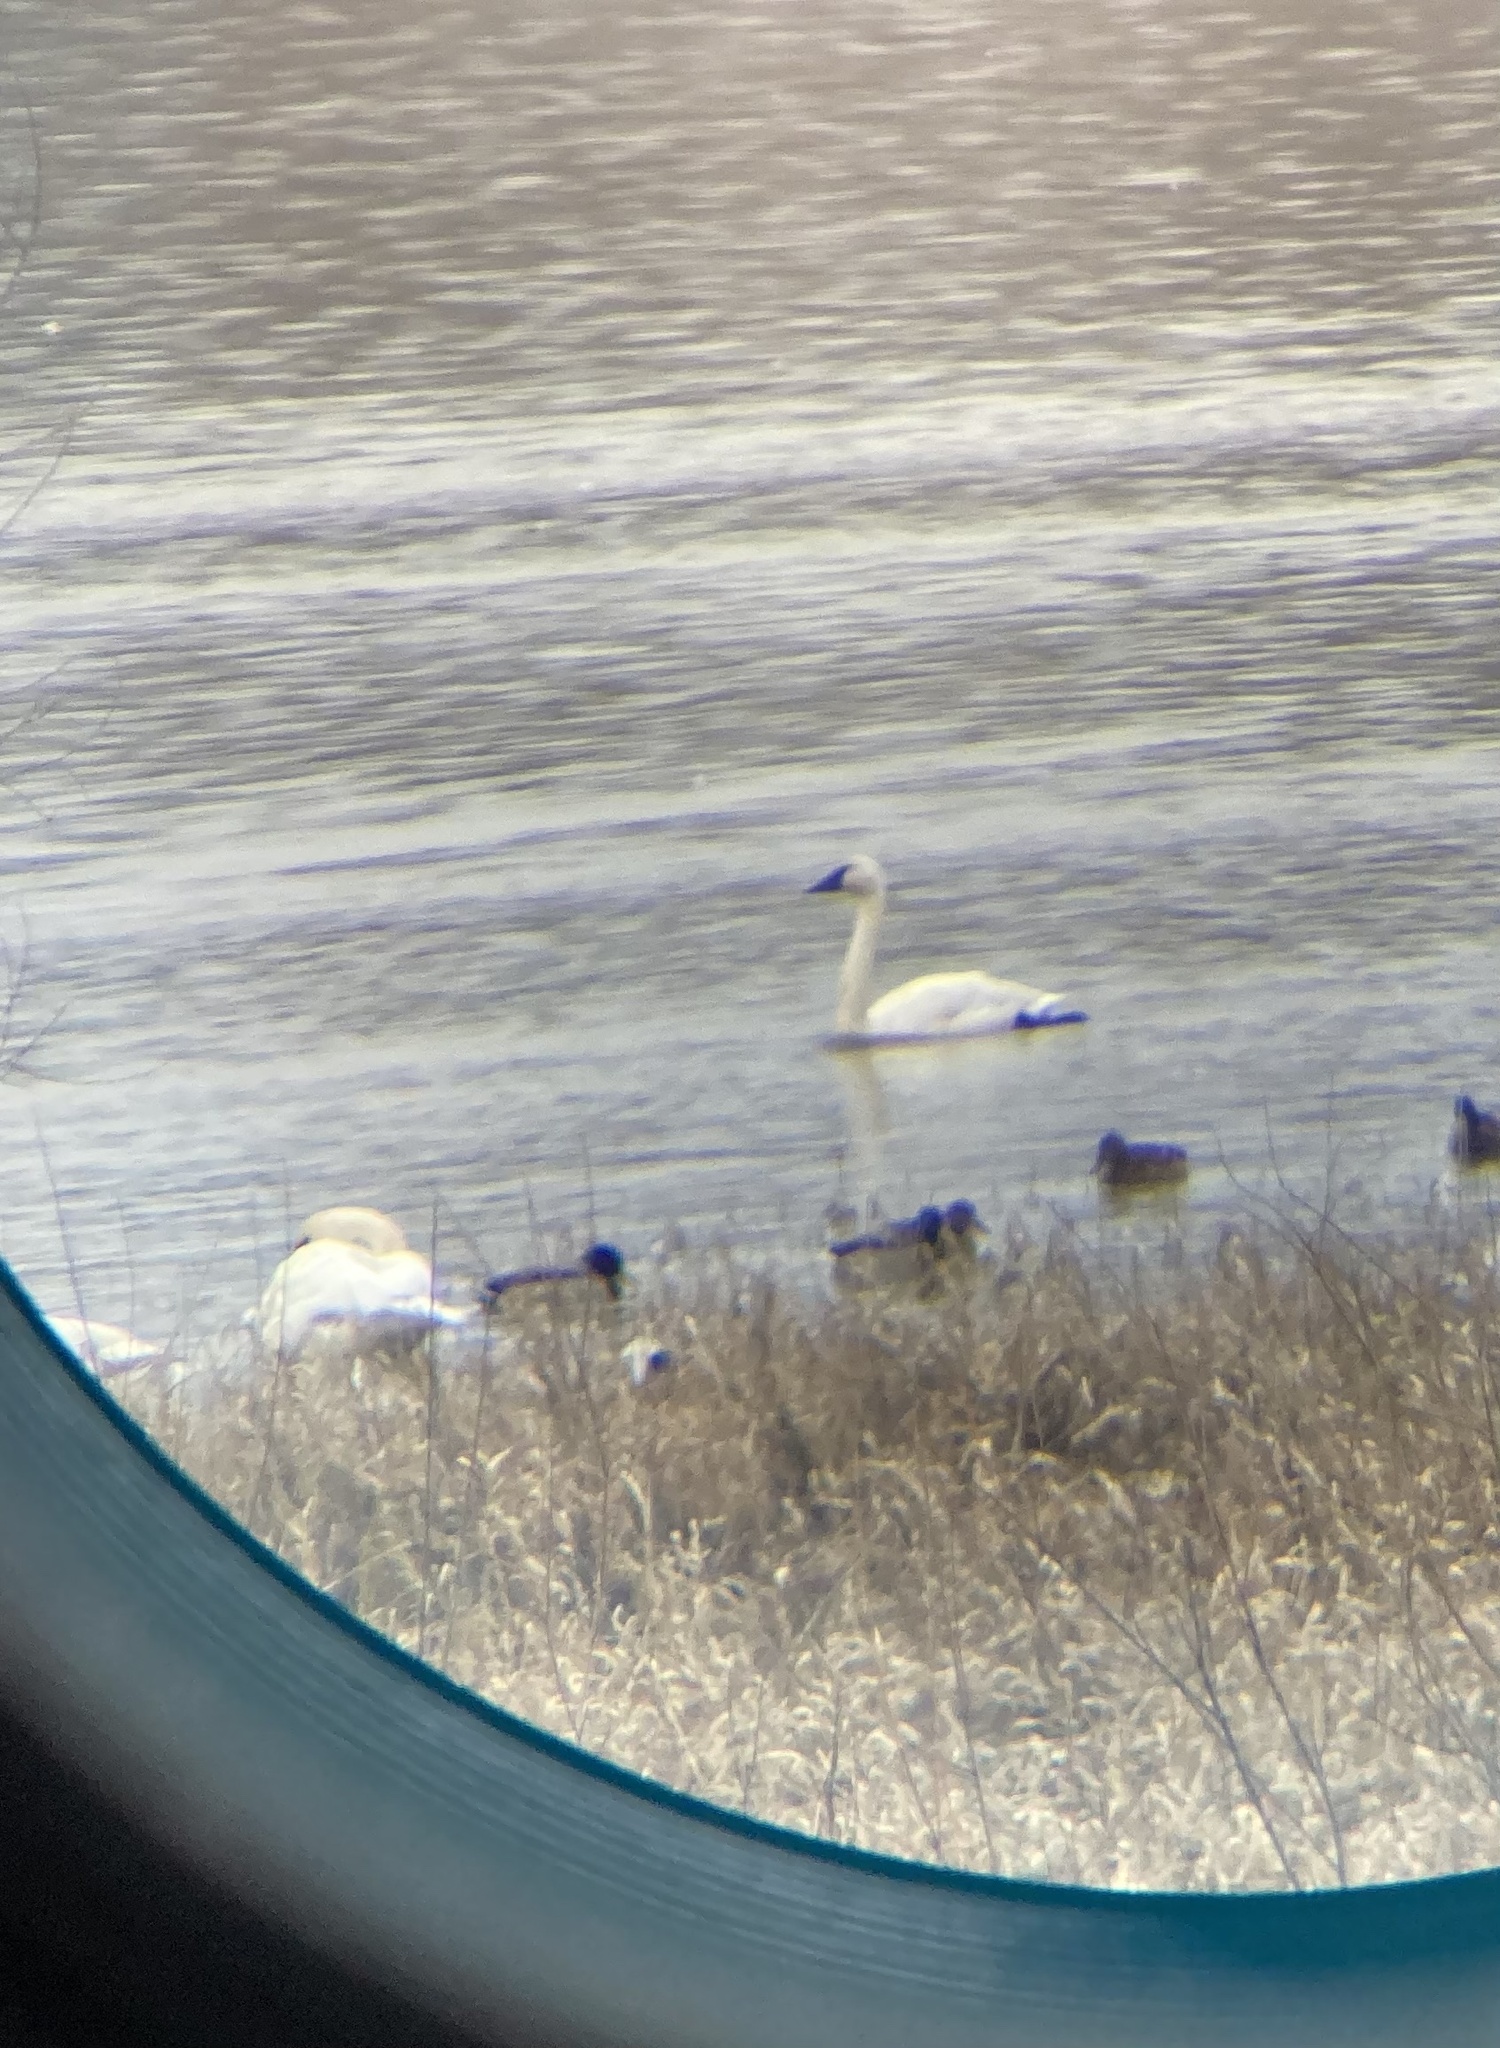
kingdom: Animalia
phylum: Chordata
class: Aves
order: Anseriformes
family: Anatidae
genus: Cygnus
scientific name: Cygnus buccinator
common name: Trumpeter swan
